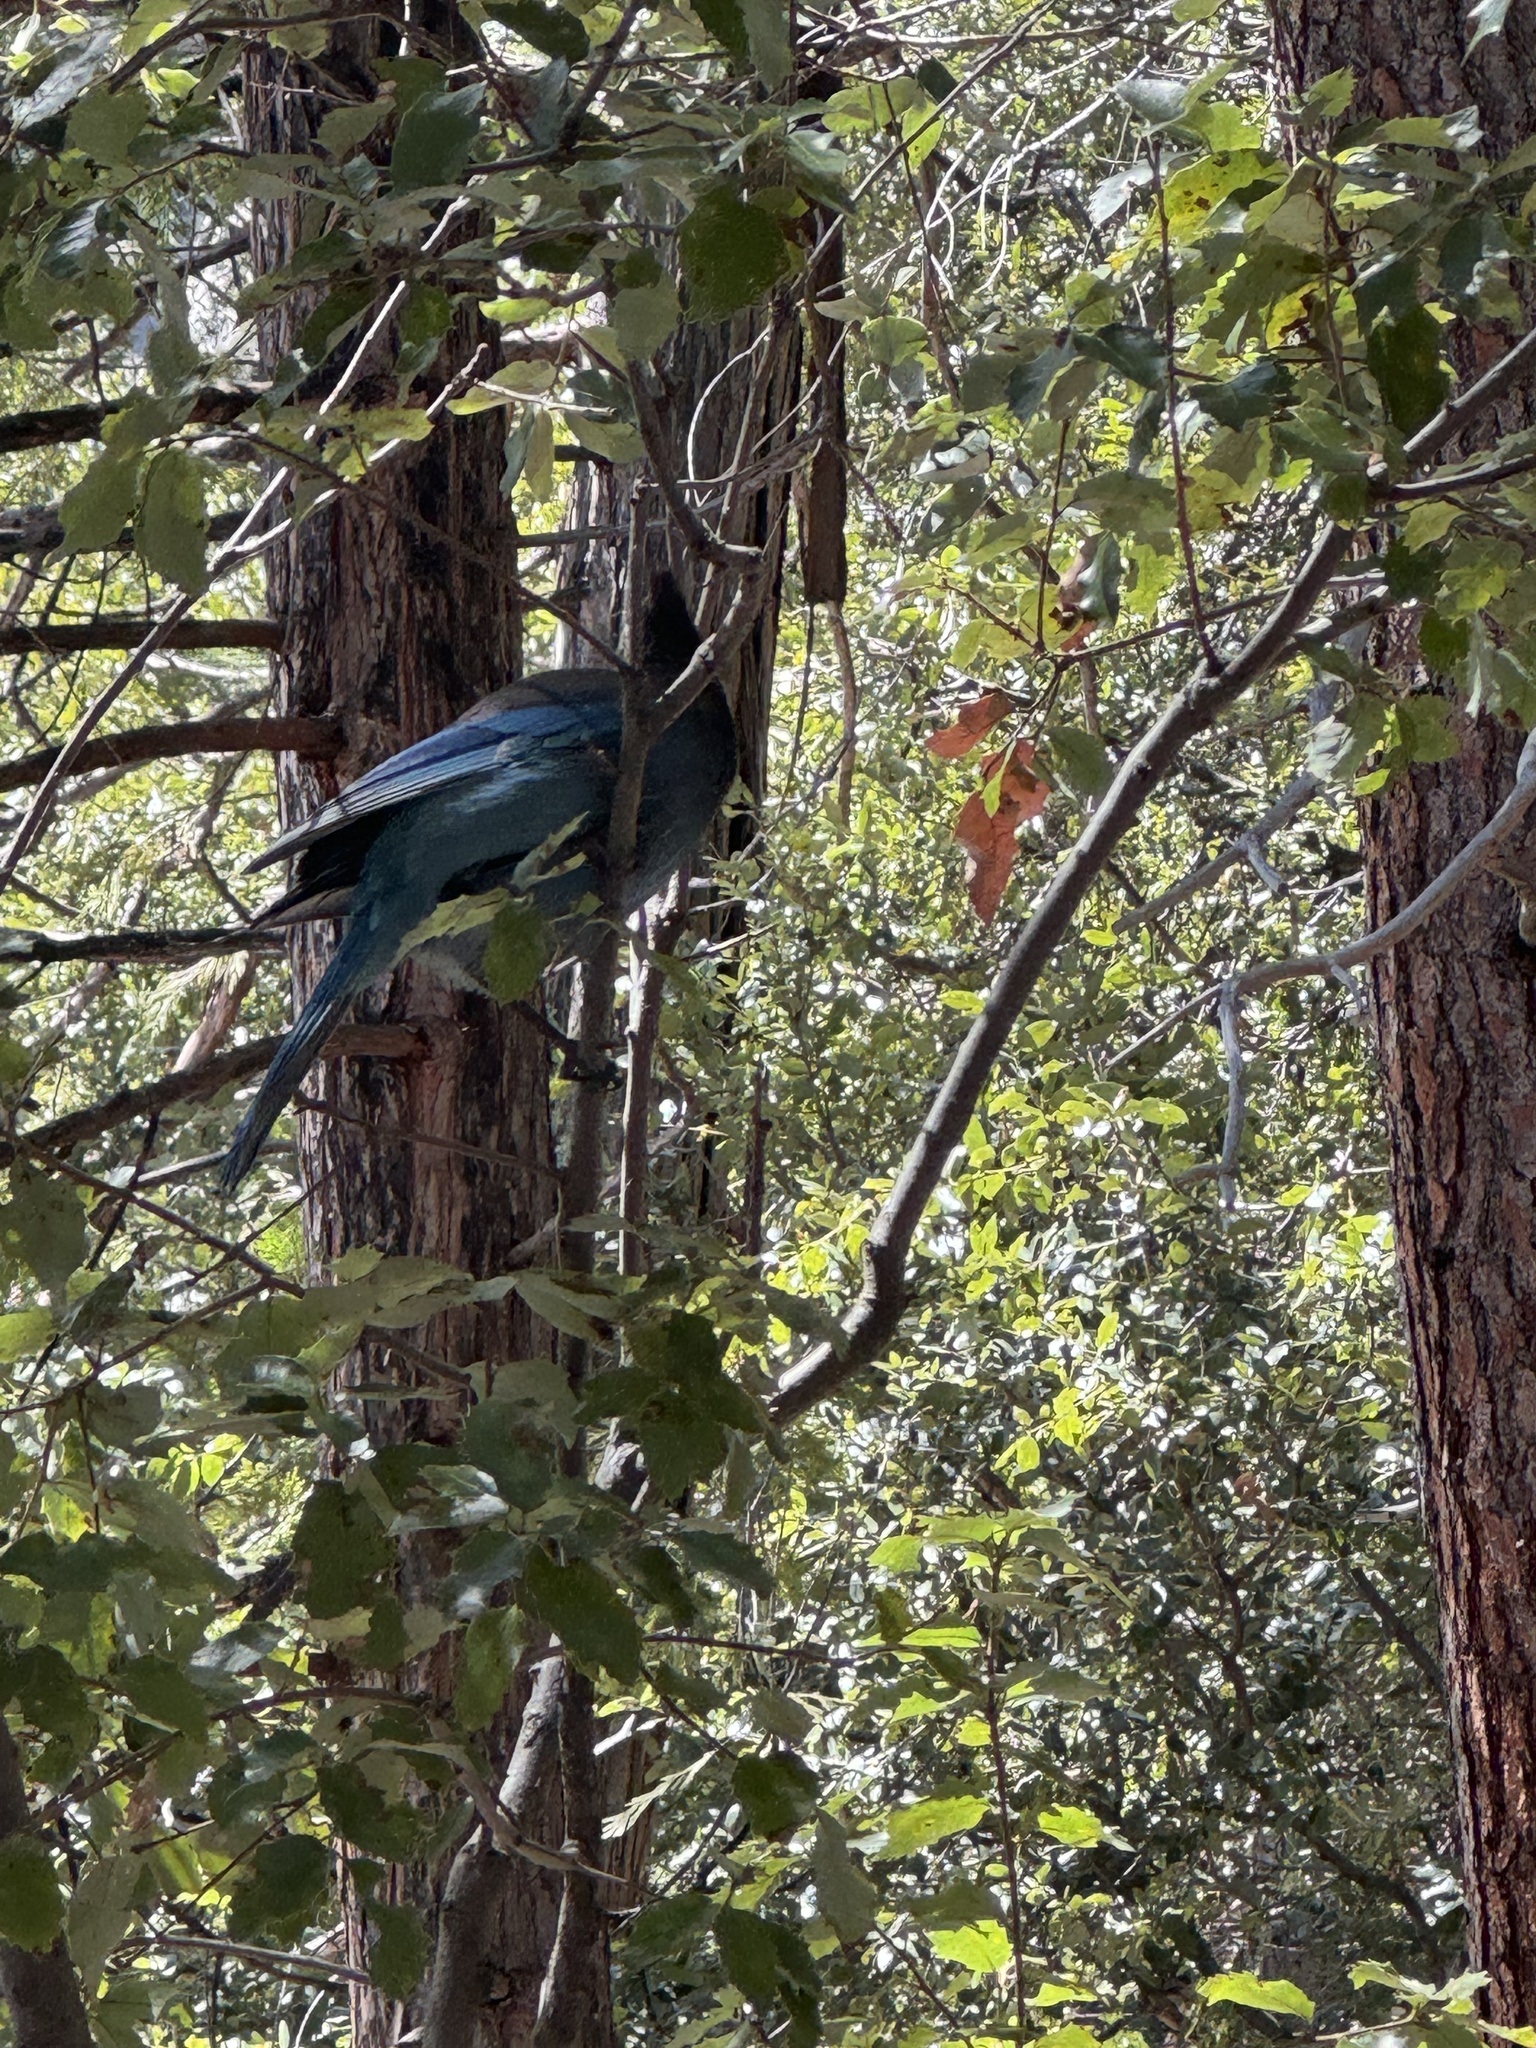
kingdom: Animalia
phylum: Chordata
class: Aves
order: Passeriformes
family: Corvidae
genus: Cyanocitta
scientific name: Cyanocitta stelleri
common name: Steller's jay
